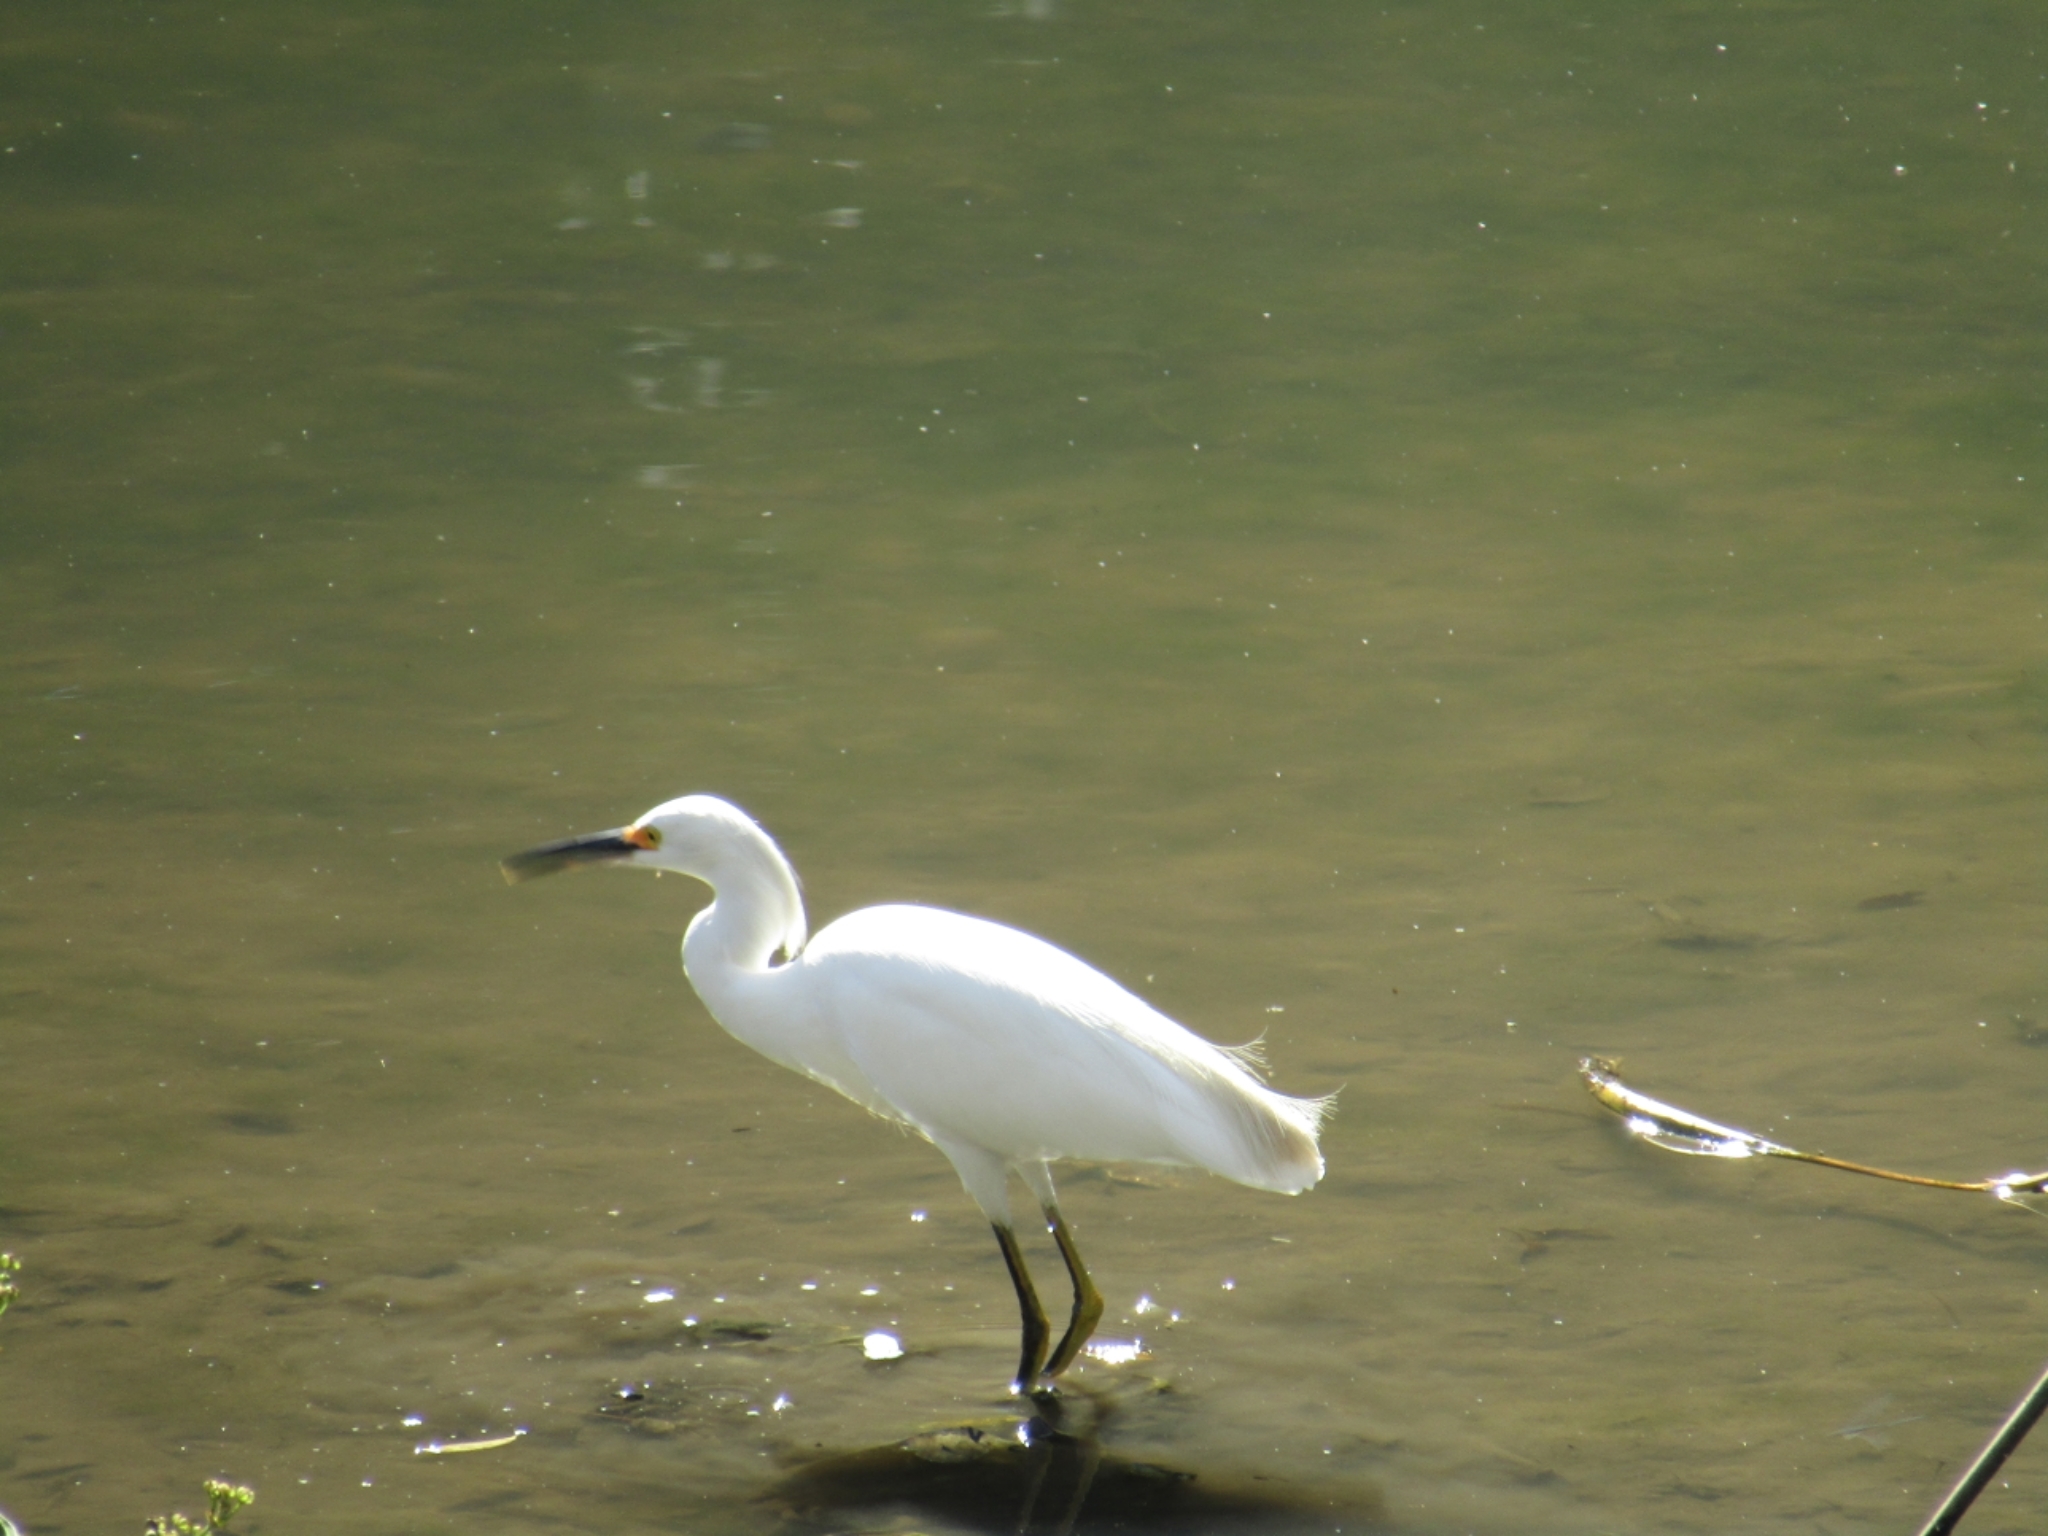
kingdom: Animalia
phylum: Chordata
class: Aves
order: Pelecaniformes
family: Ardeidae
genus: Egretta
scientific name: Egretta thula
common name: Snowy egret
